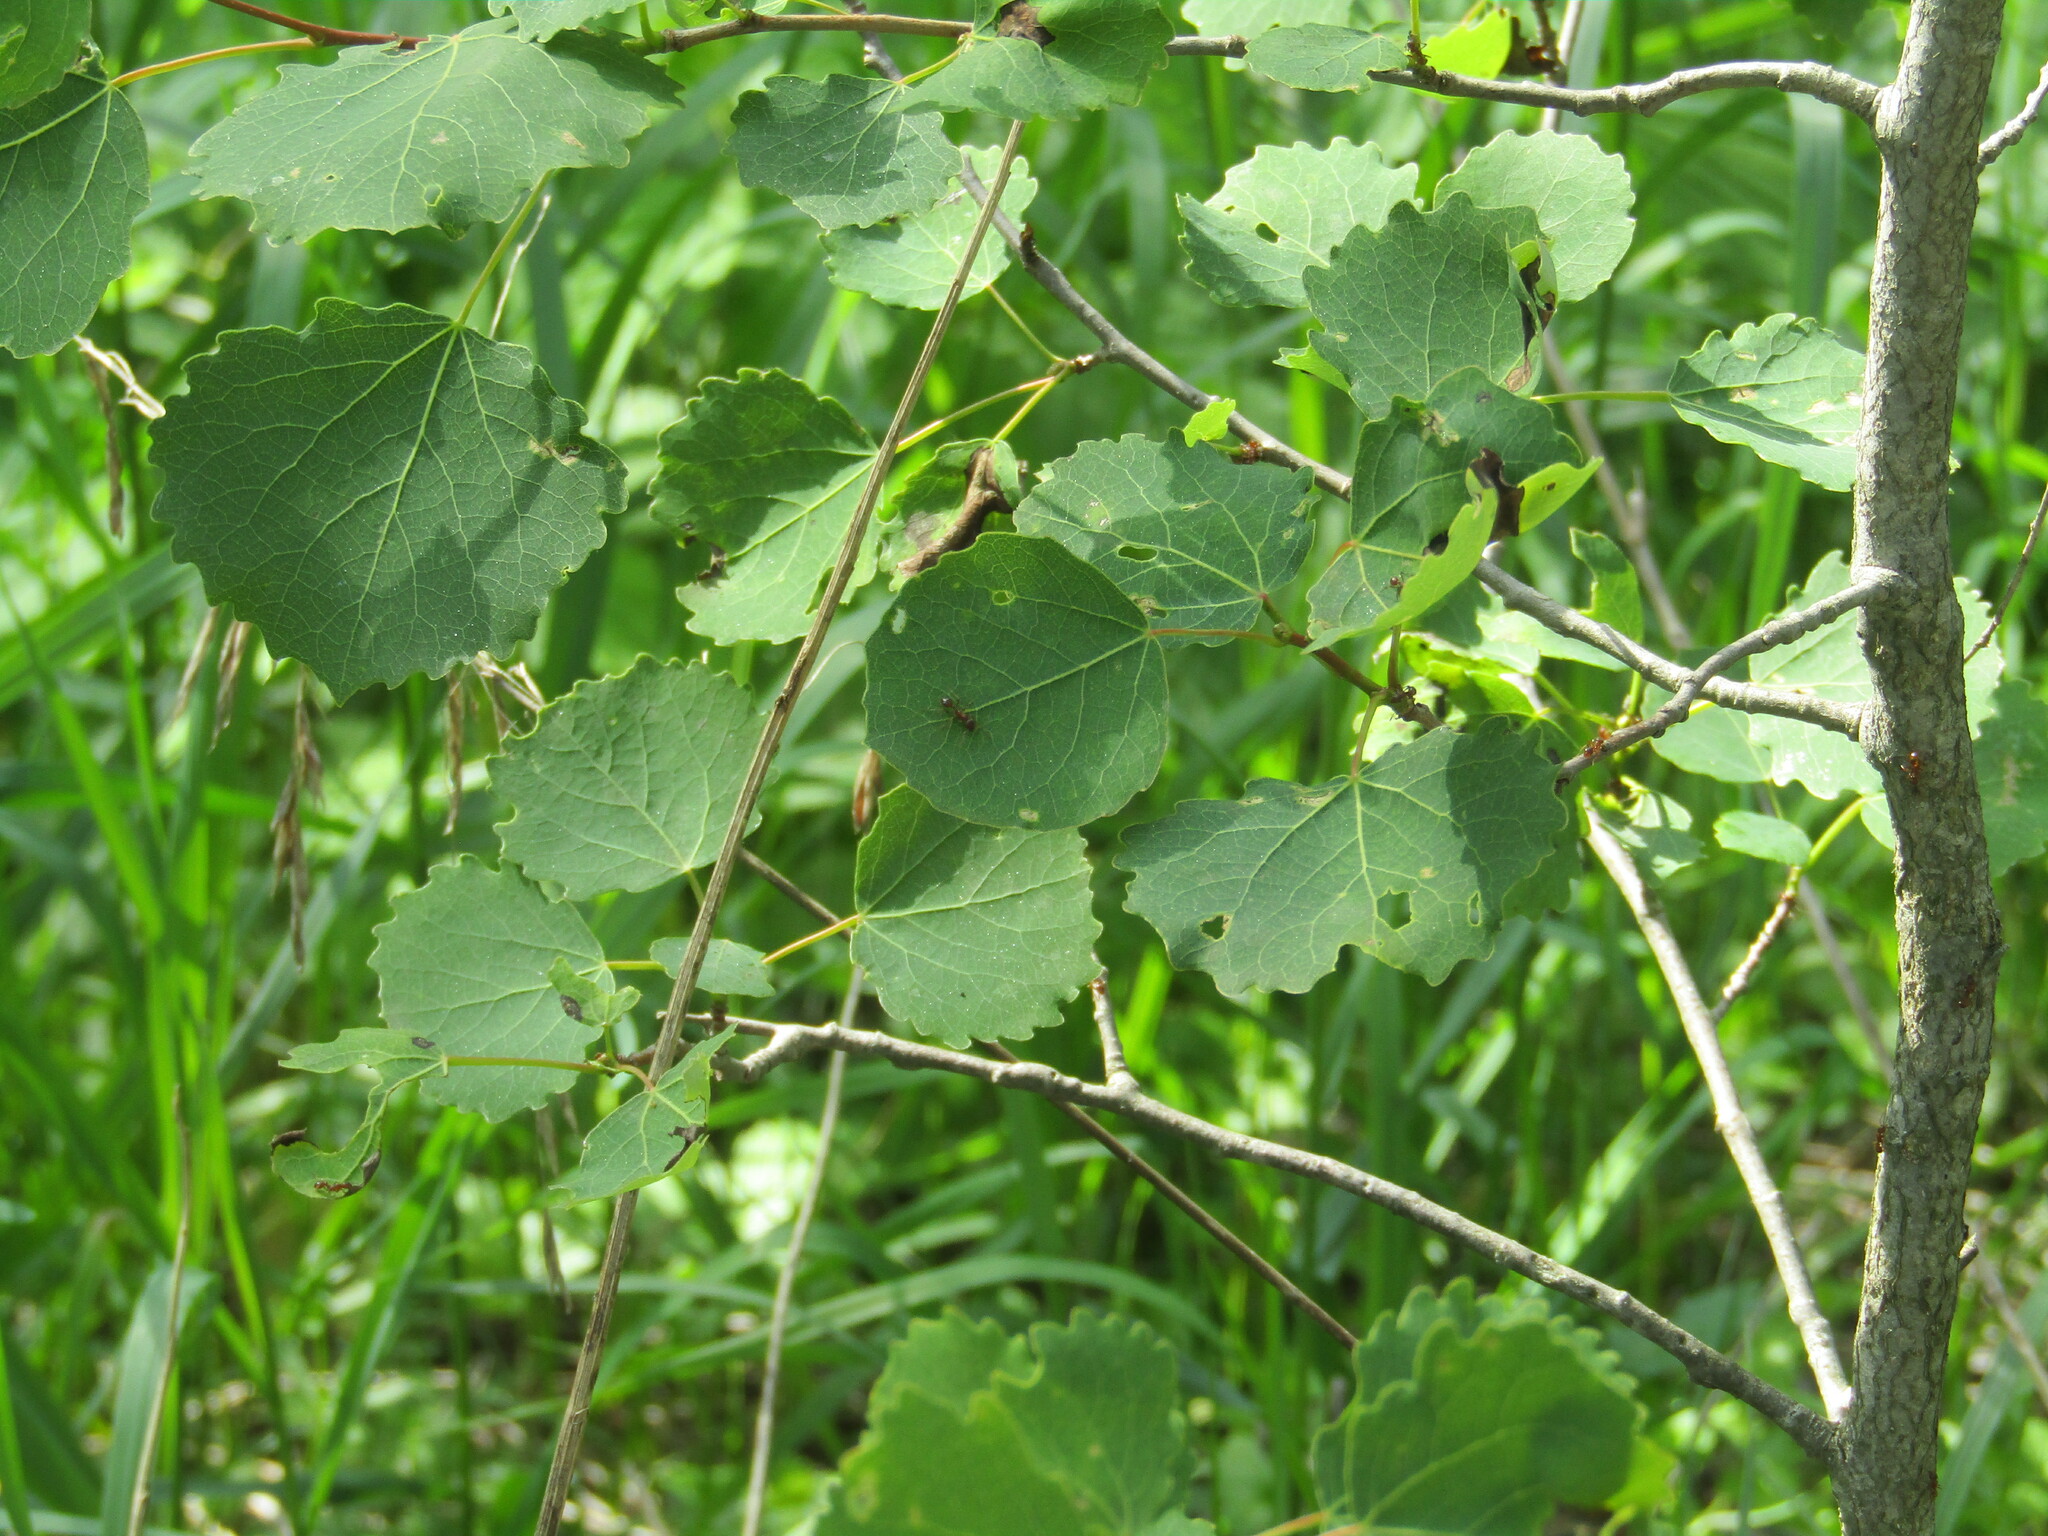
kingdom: Plantae
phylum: Tracheophyta
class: Magnoliopsida
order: Malpighiales
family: Salicaceae
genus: Populus
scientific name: Populus tremula
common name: European aspen
